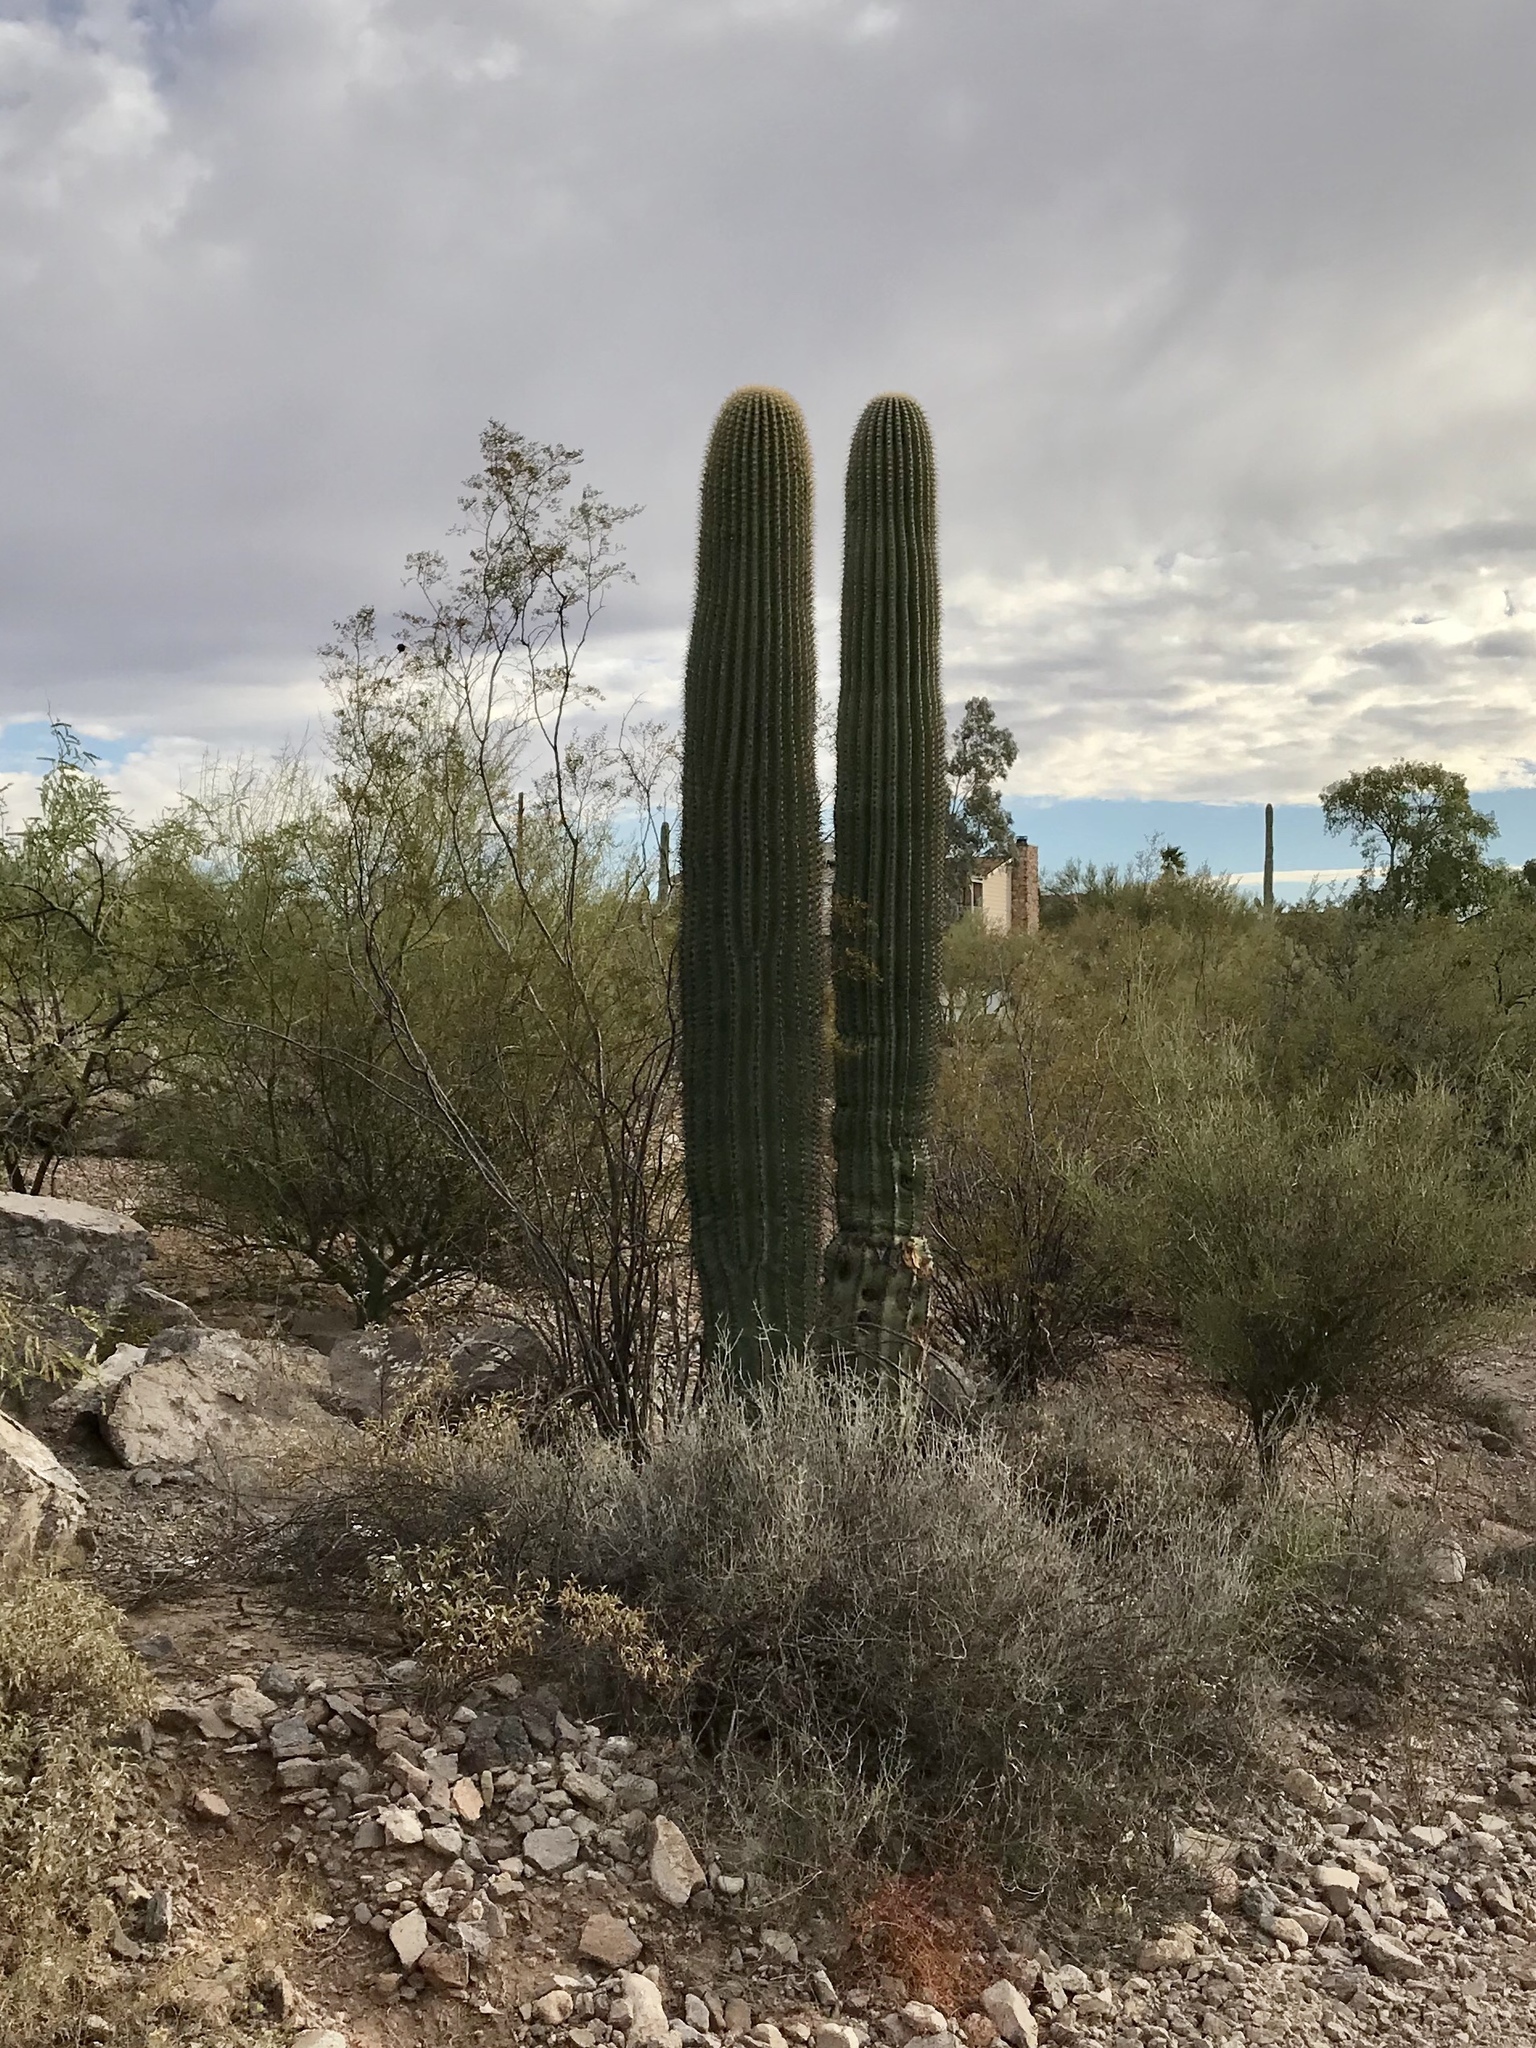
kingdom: Plantae
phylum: Tracheophyta
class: Magnoliopsida
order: Caryophyllales
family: Cactaceae
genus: Carnegiea
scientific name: Carnegiea gigantea
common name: Saguaro
